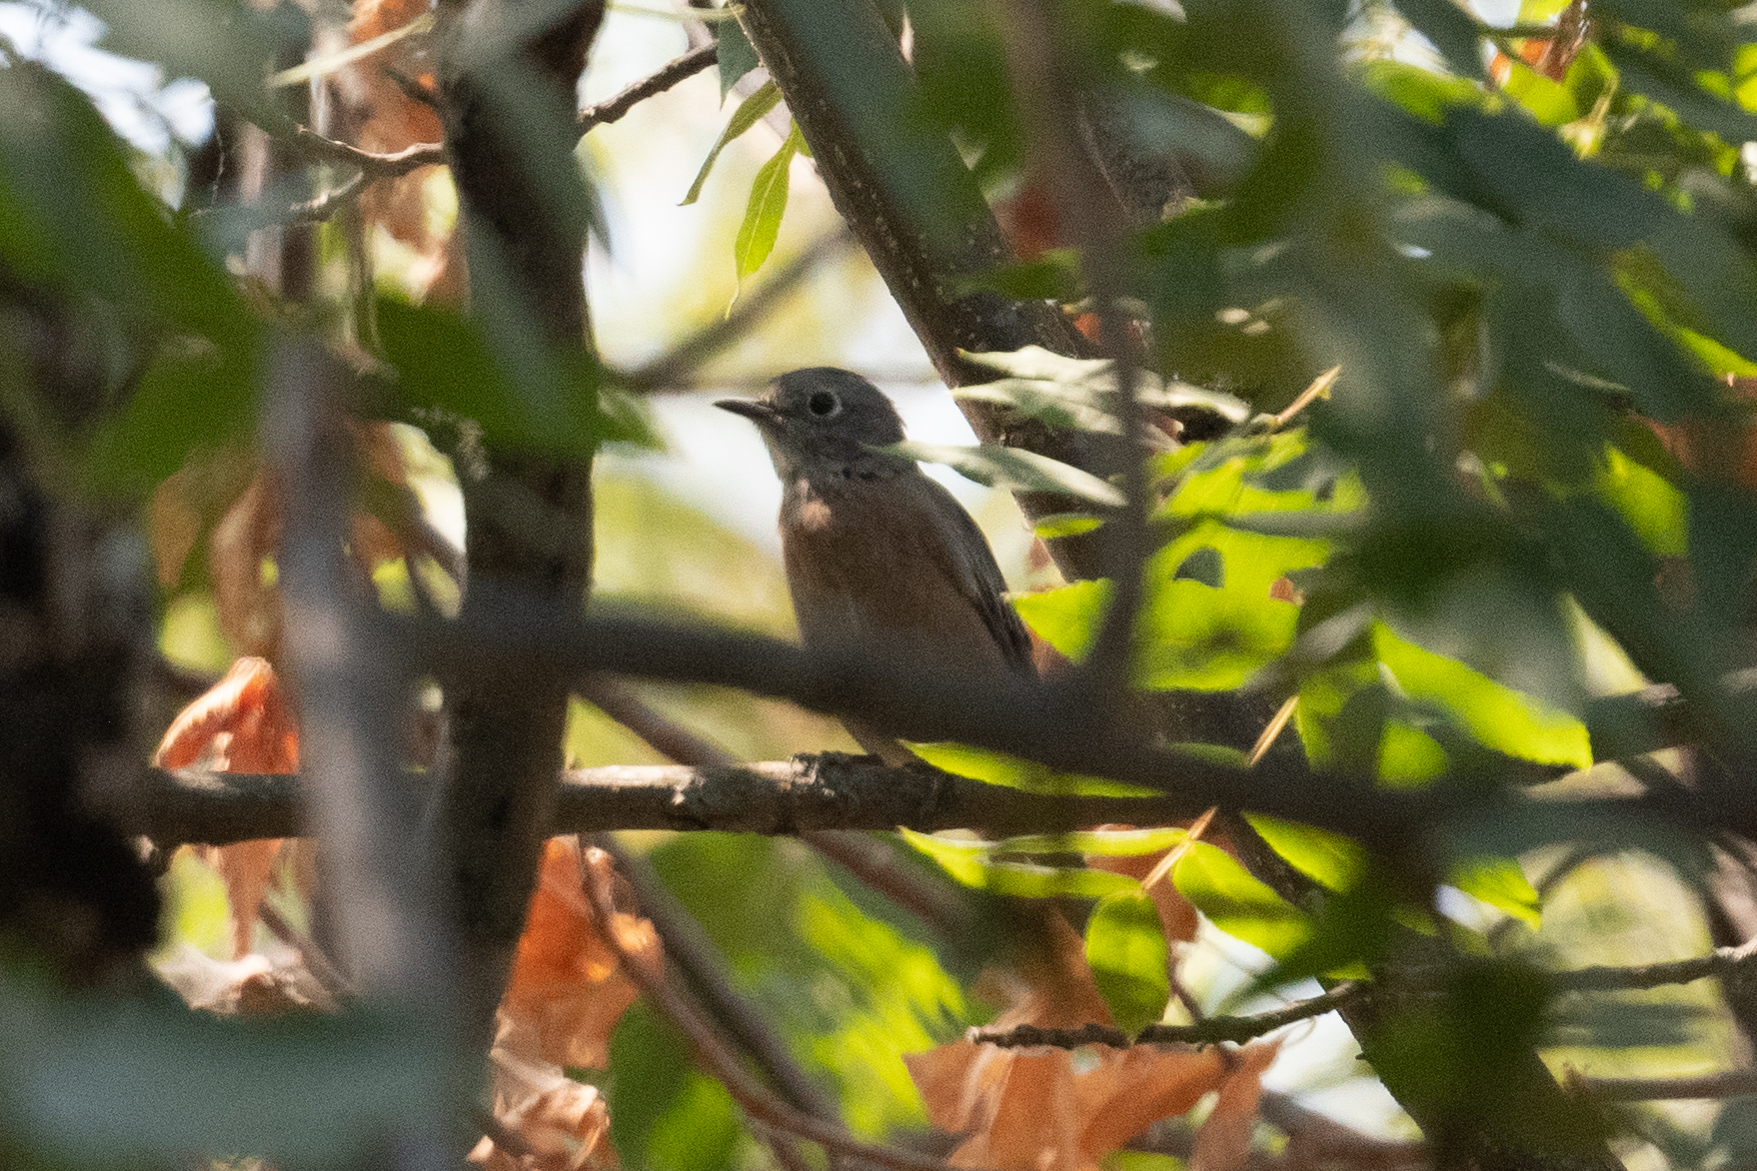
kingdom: Animalia
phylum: Chordata
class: Aves
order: Passeriformes
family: Turdidae
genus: Sialia
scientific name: Sialia mexicana
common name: Western bluebird
